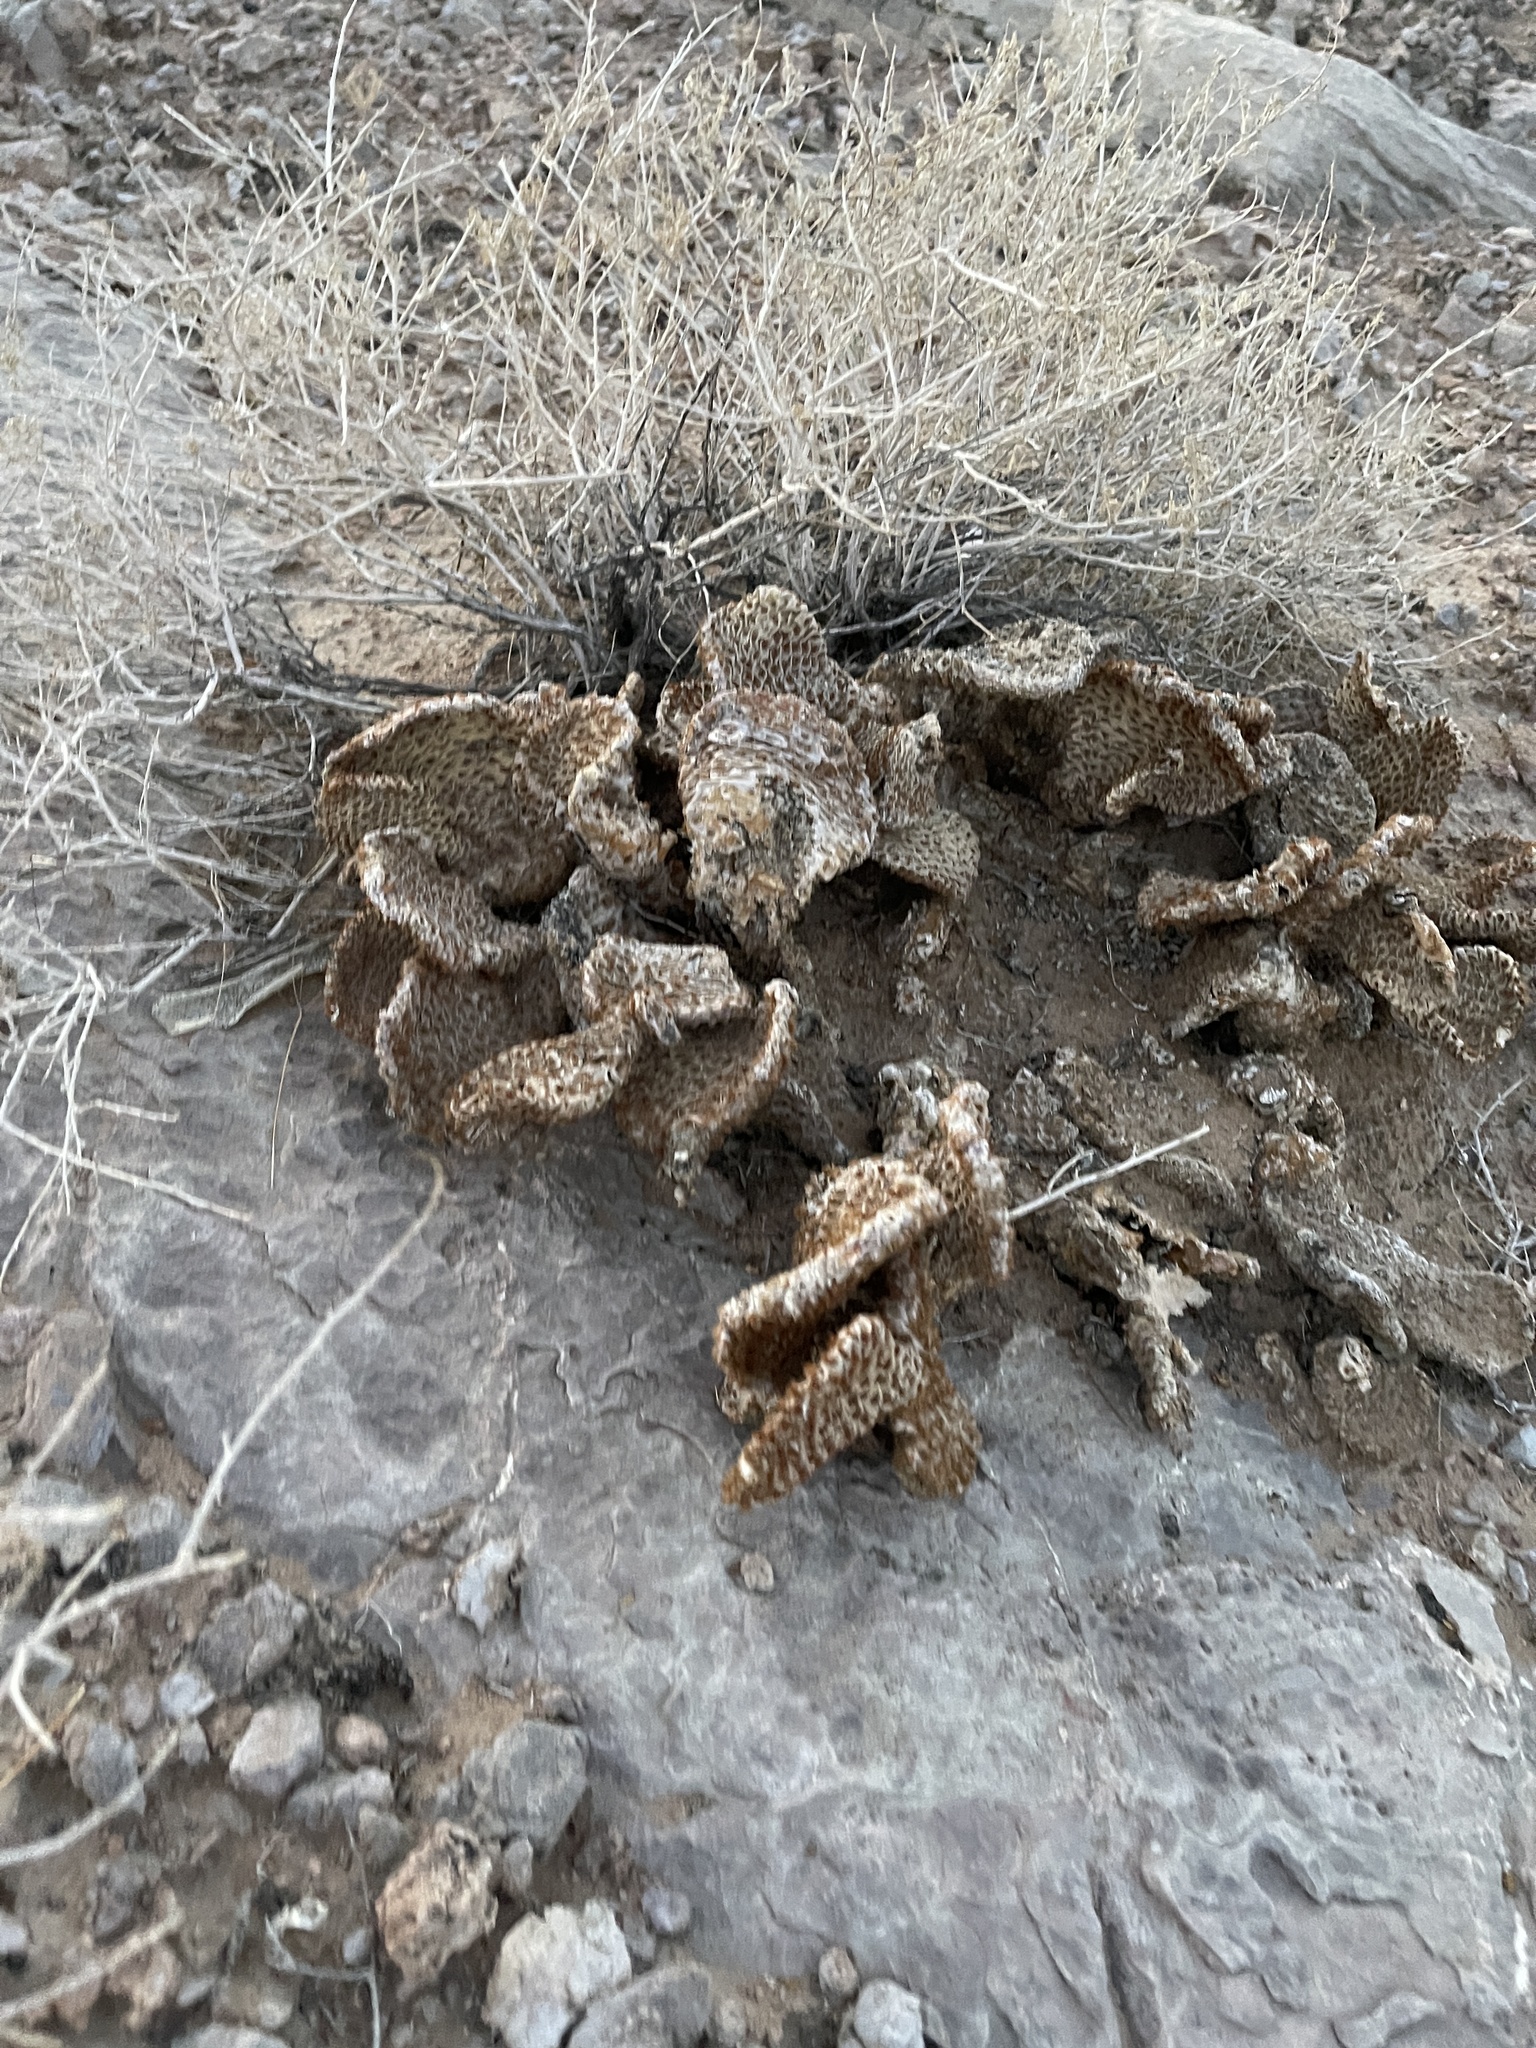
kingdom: Plantae
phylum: Tracheophyta
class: Magnoliopsida
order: Caryophyllales
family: Cactaceae
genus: Opuntia
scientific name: Opuntia basilaris
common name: Beavertail prickly-pear
